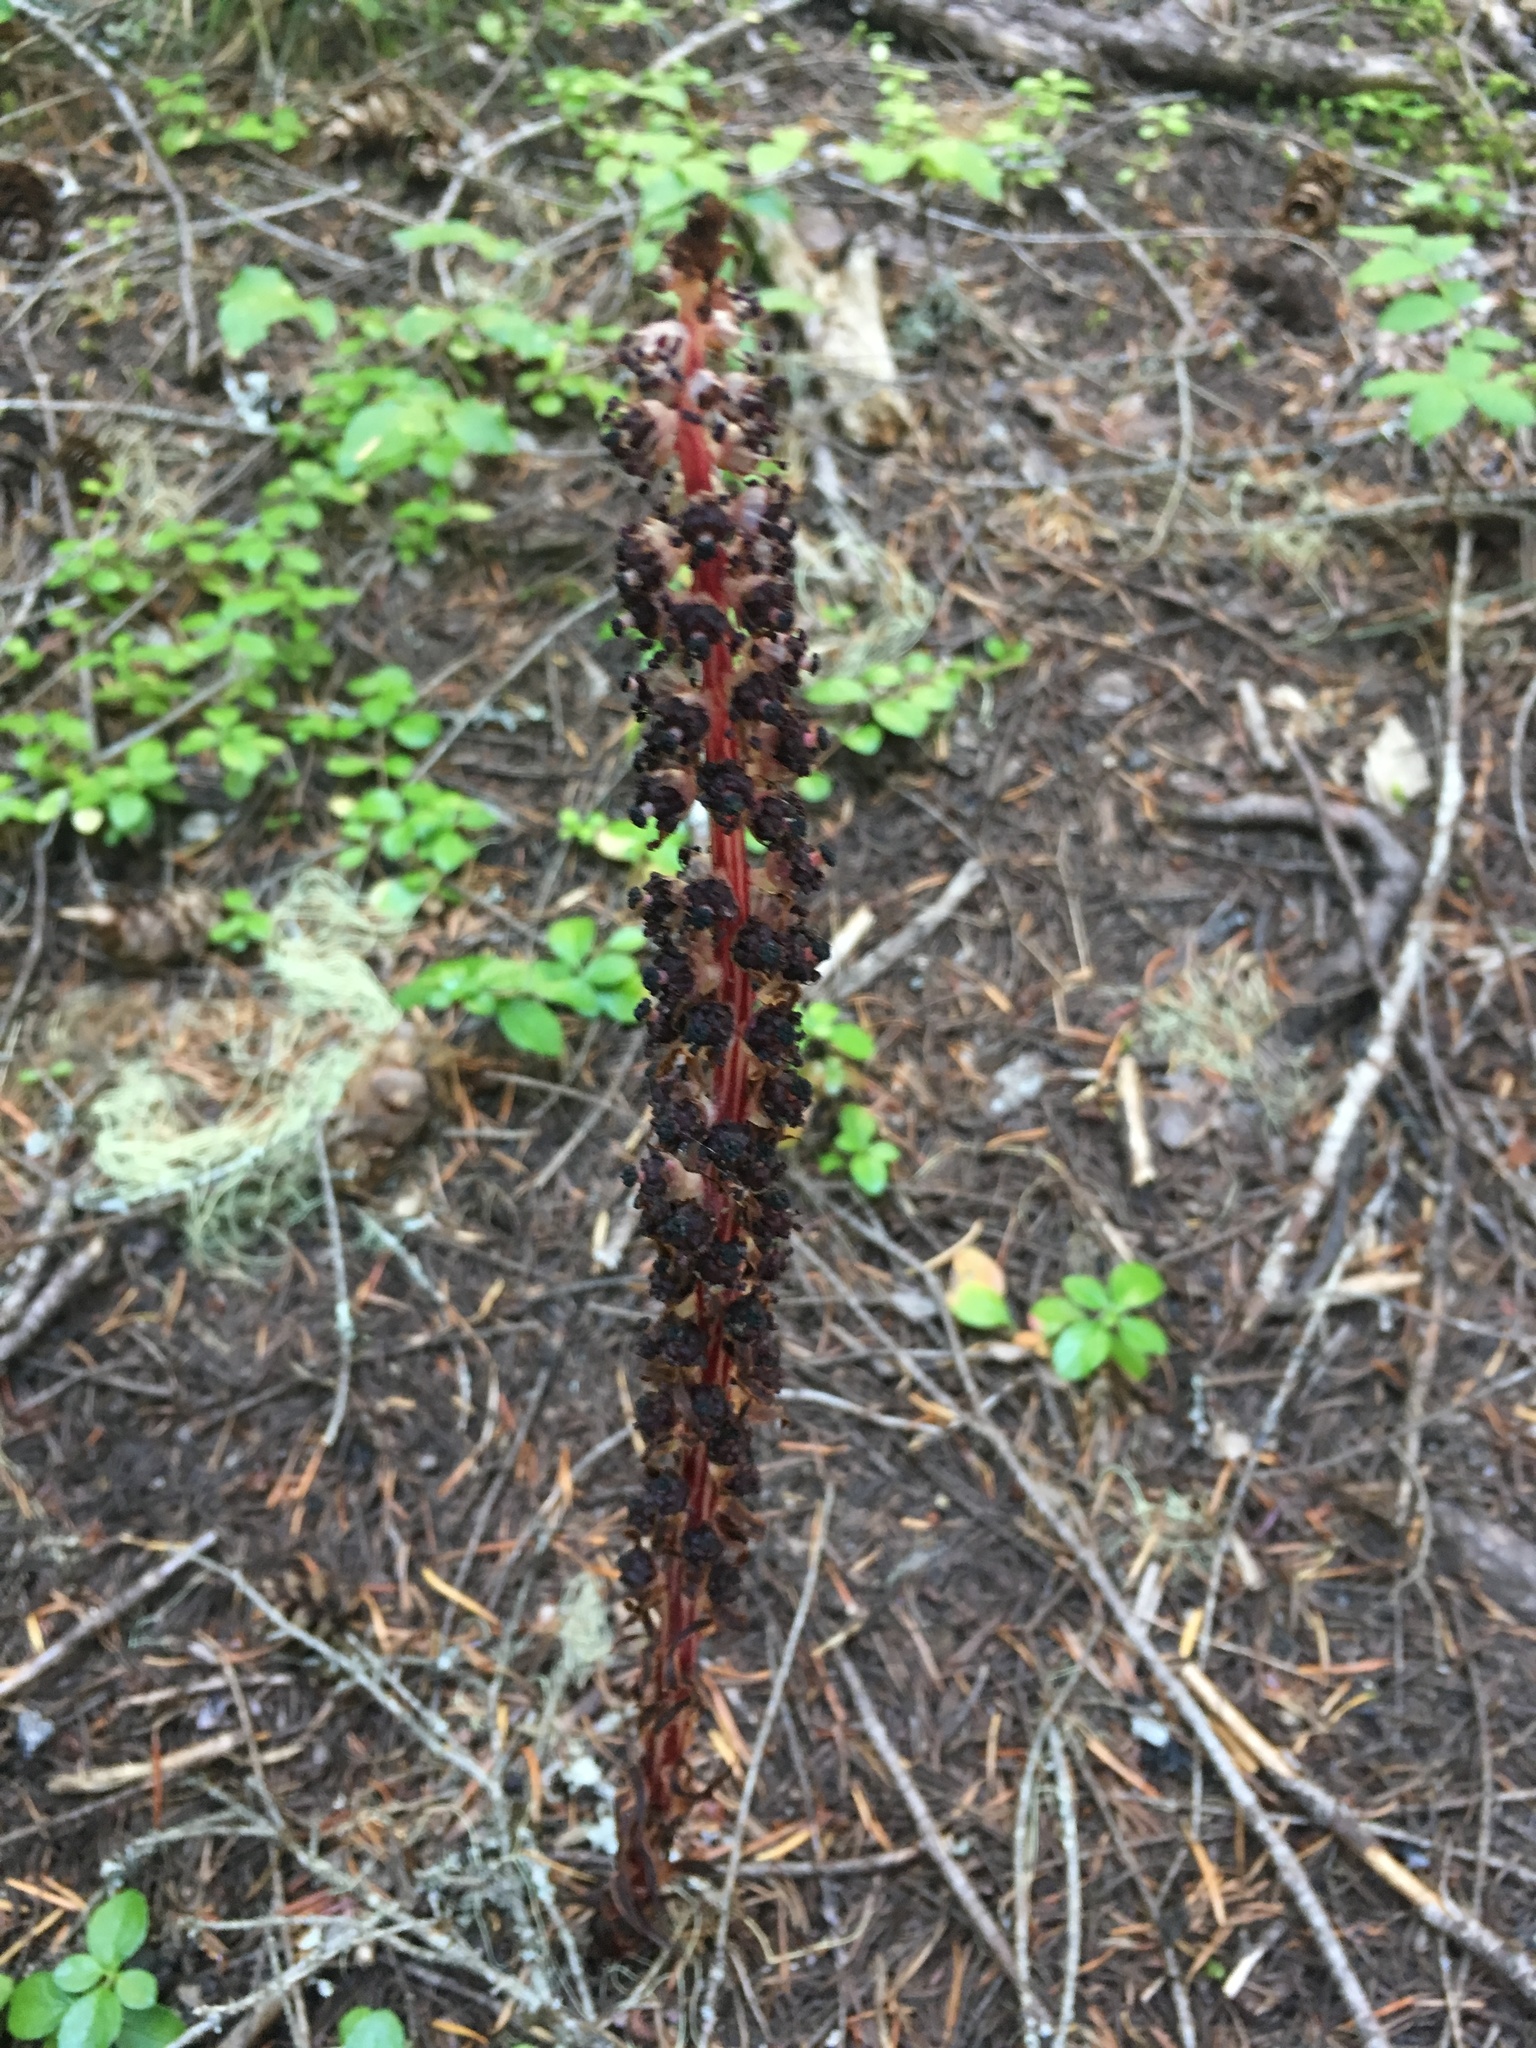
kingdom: Plantae
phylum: Tracheophyta
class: Magnoliopsida
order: Ericales
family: Ericaceae
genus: Allotropa
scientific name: Allotropa virgata
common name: Candy-striped allotropa
